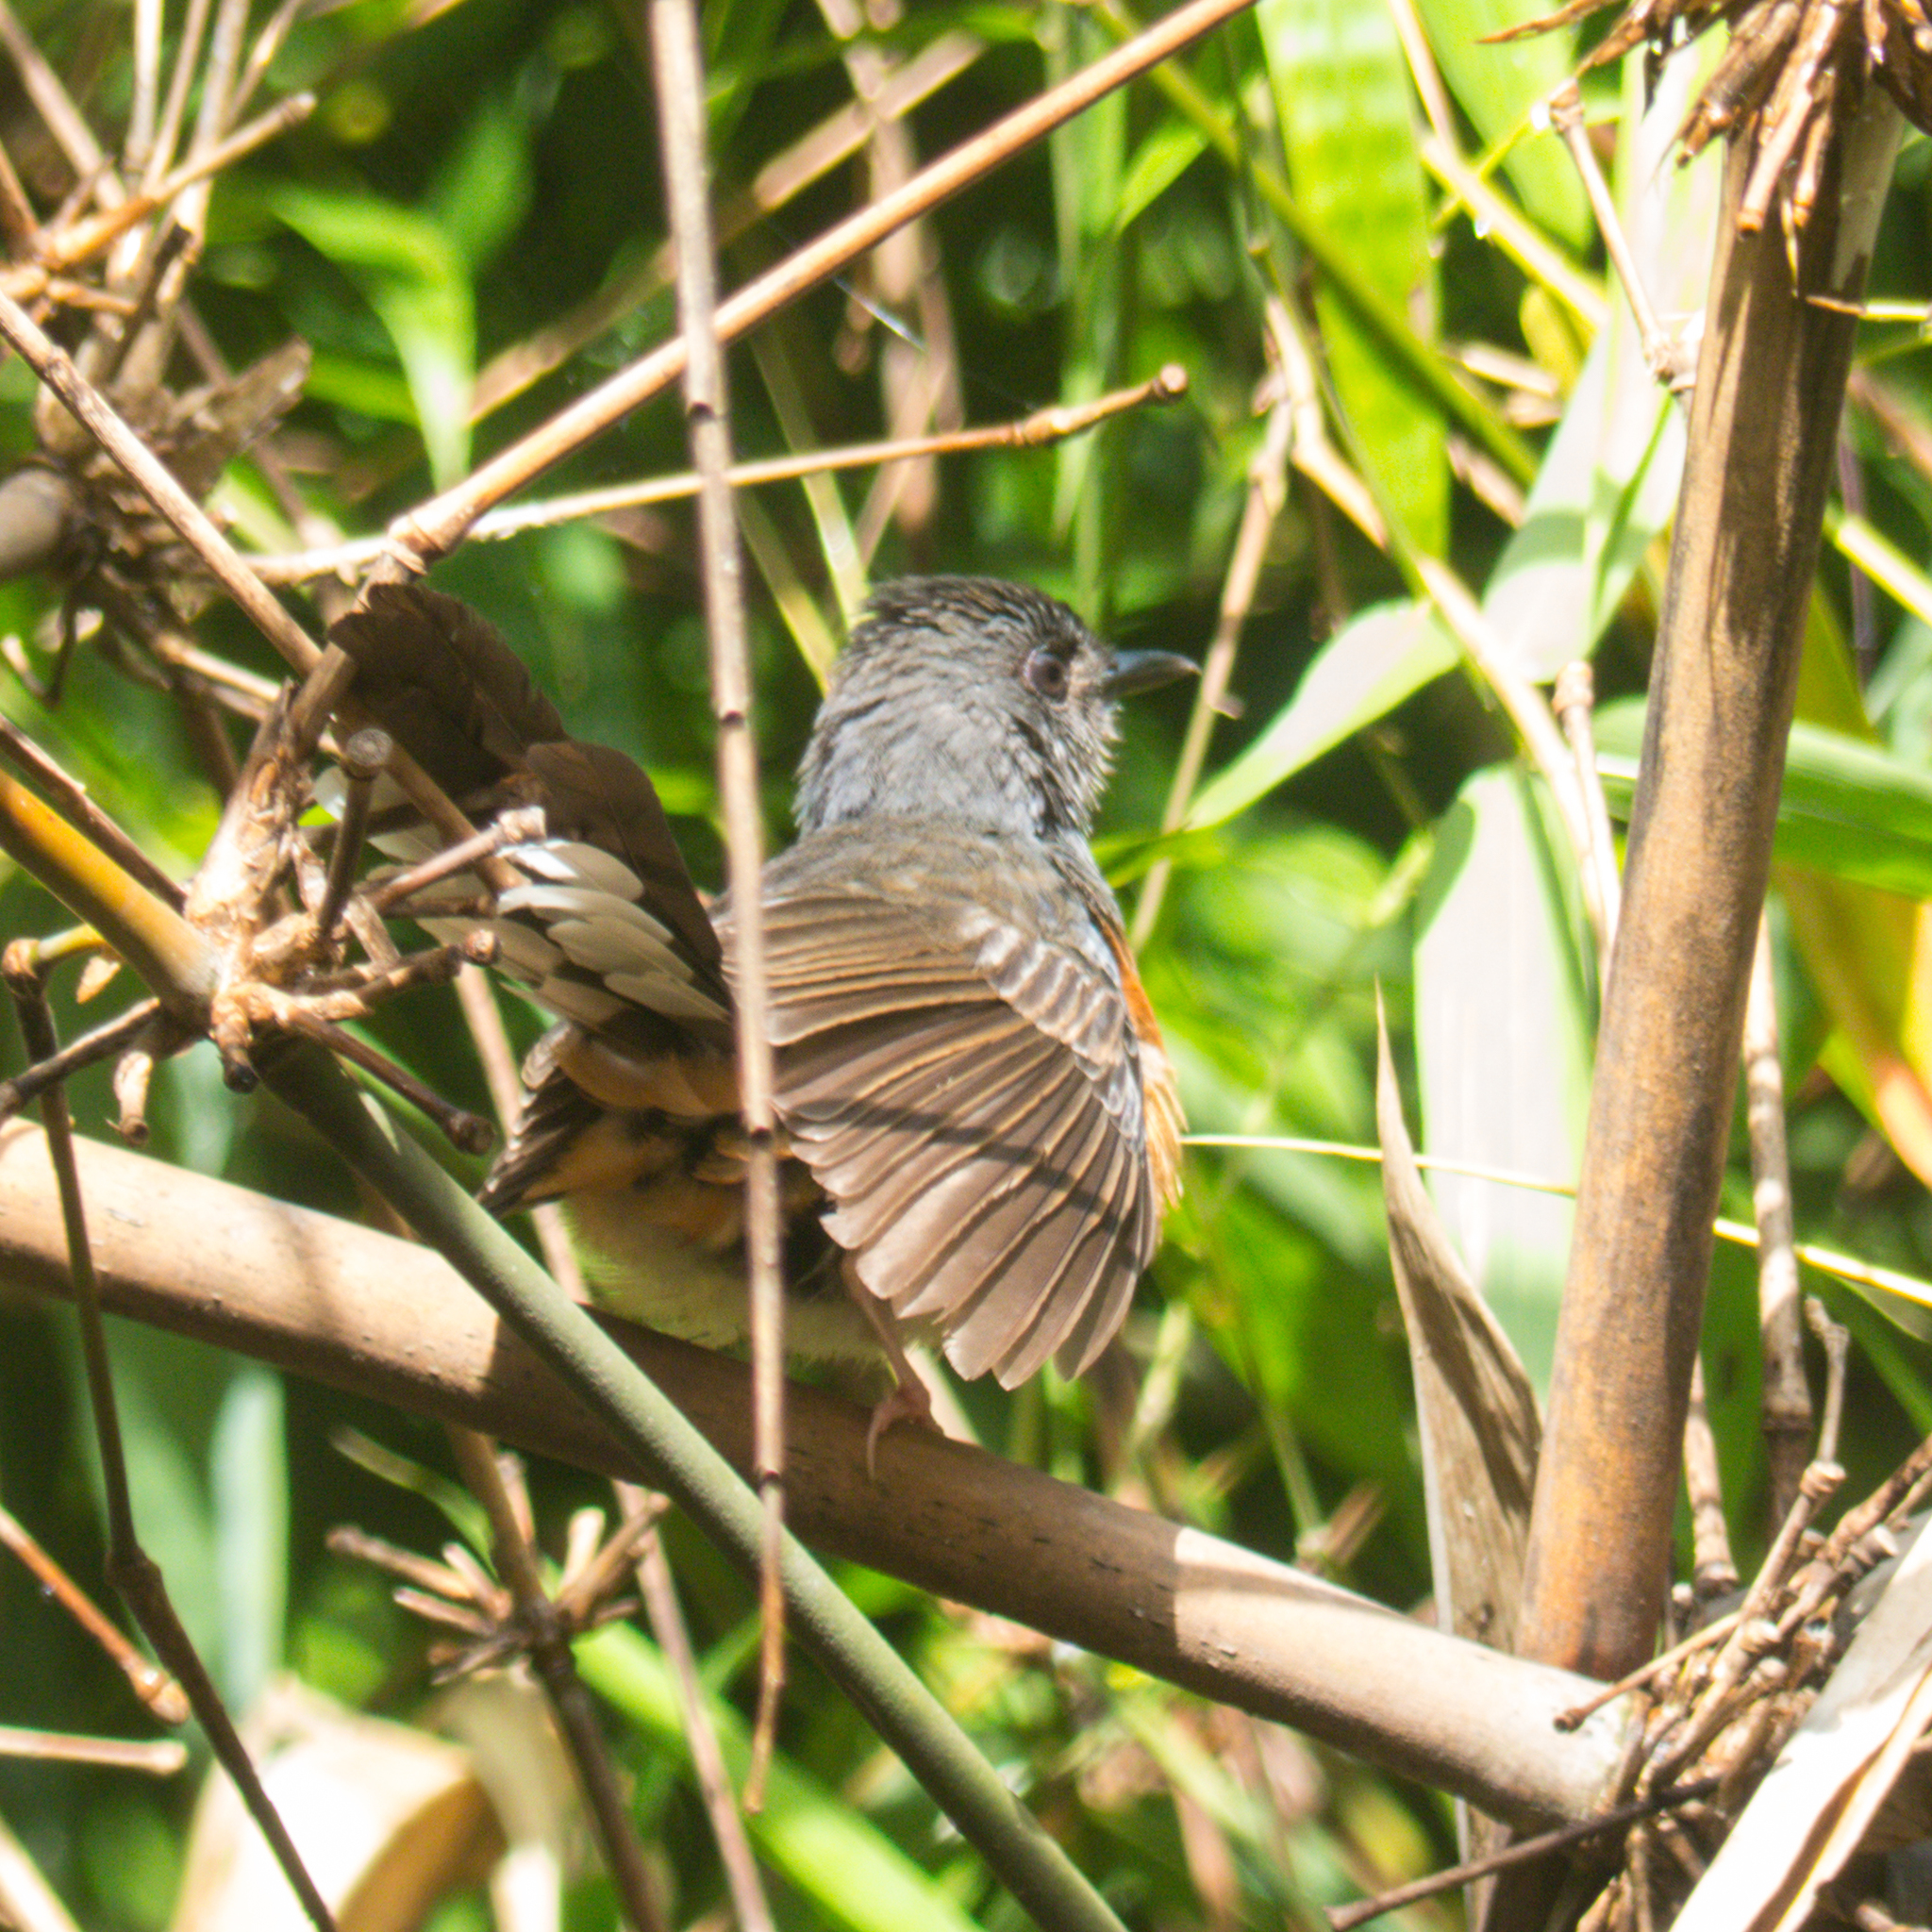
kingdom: Animalia
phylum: Chordata
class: Aves
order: Passeriformes
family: Muscicapidae
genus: Copsychus
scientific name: Copsychus malabaricus
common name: White-rumped shama
